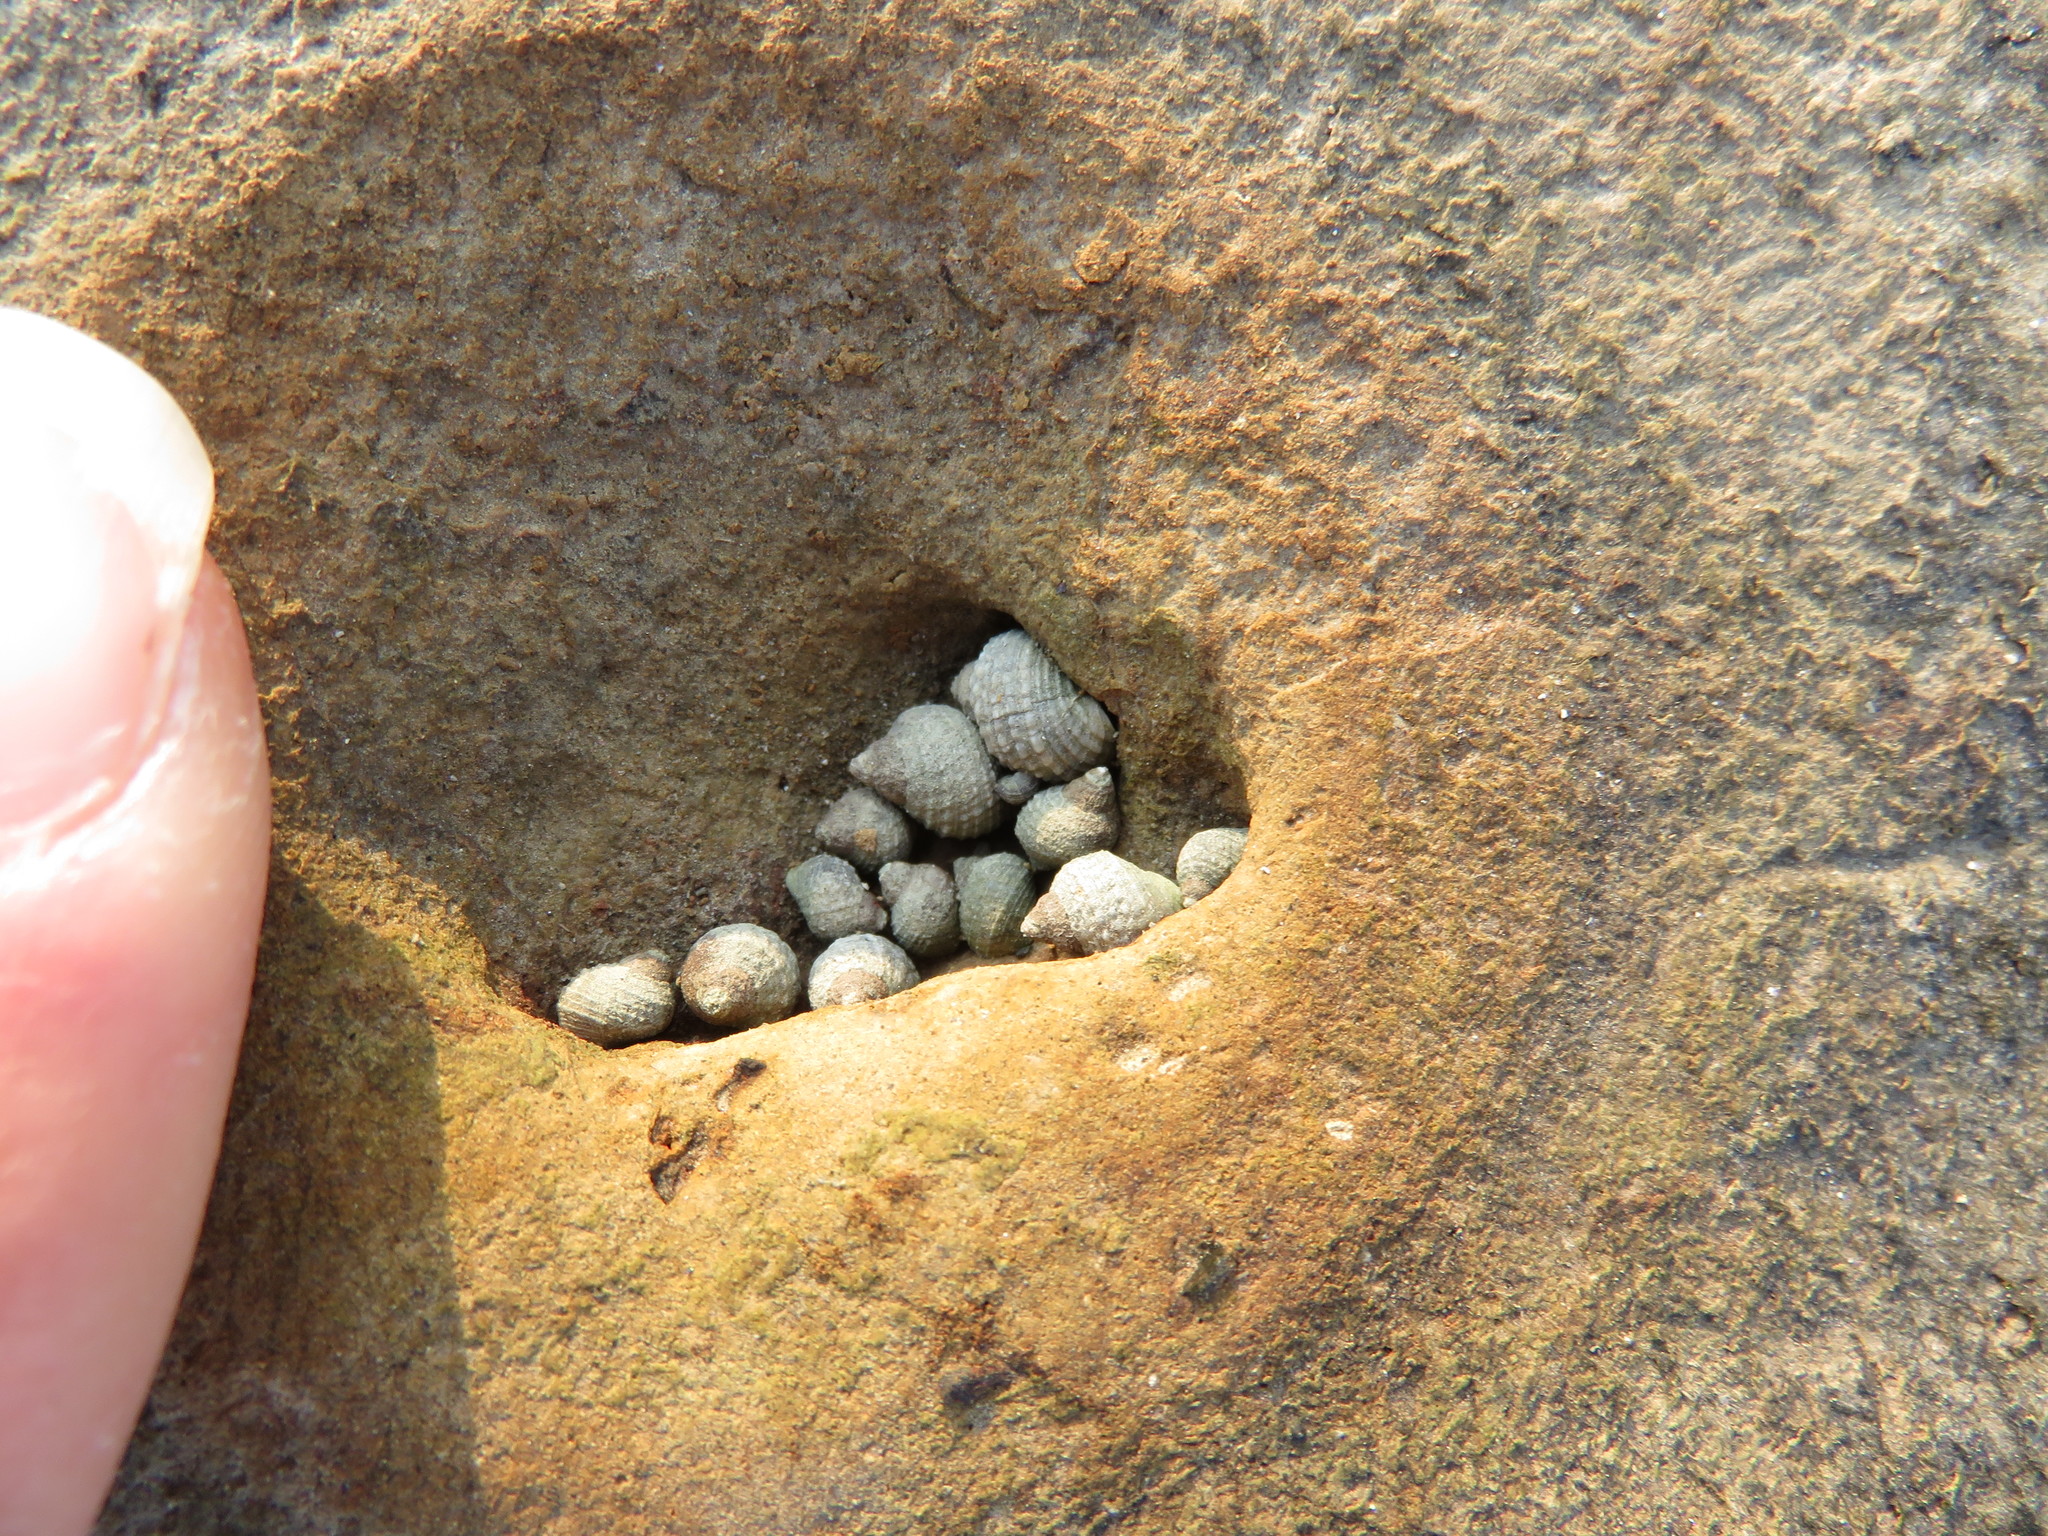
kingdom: Animalia
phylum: Mollusca
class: Gastropoda
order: Littorinimorpha
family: Littorinidae
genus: Echinolittorina
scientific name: Echinolittorina radiata
